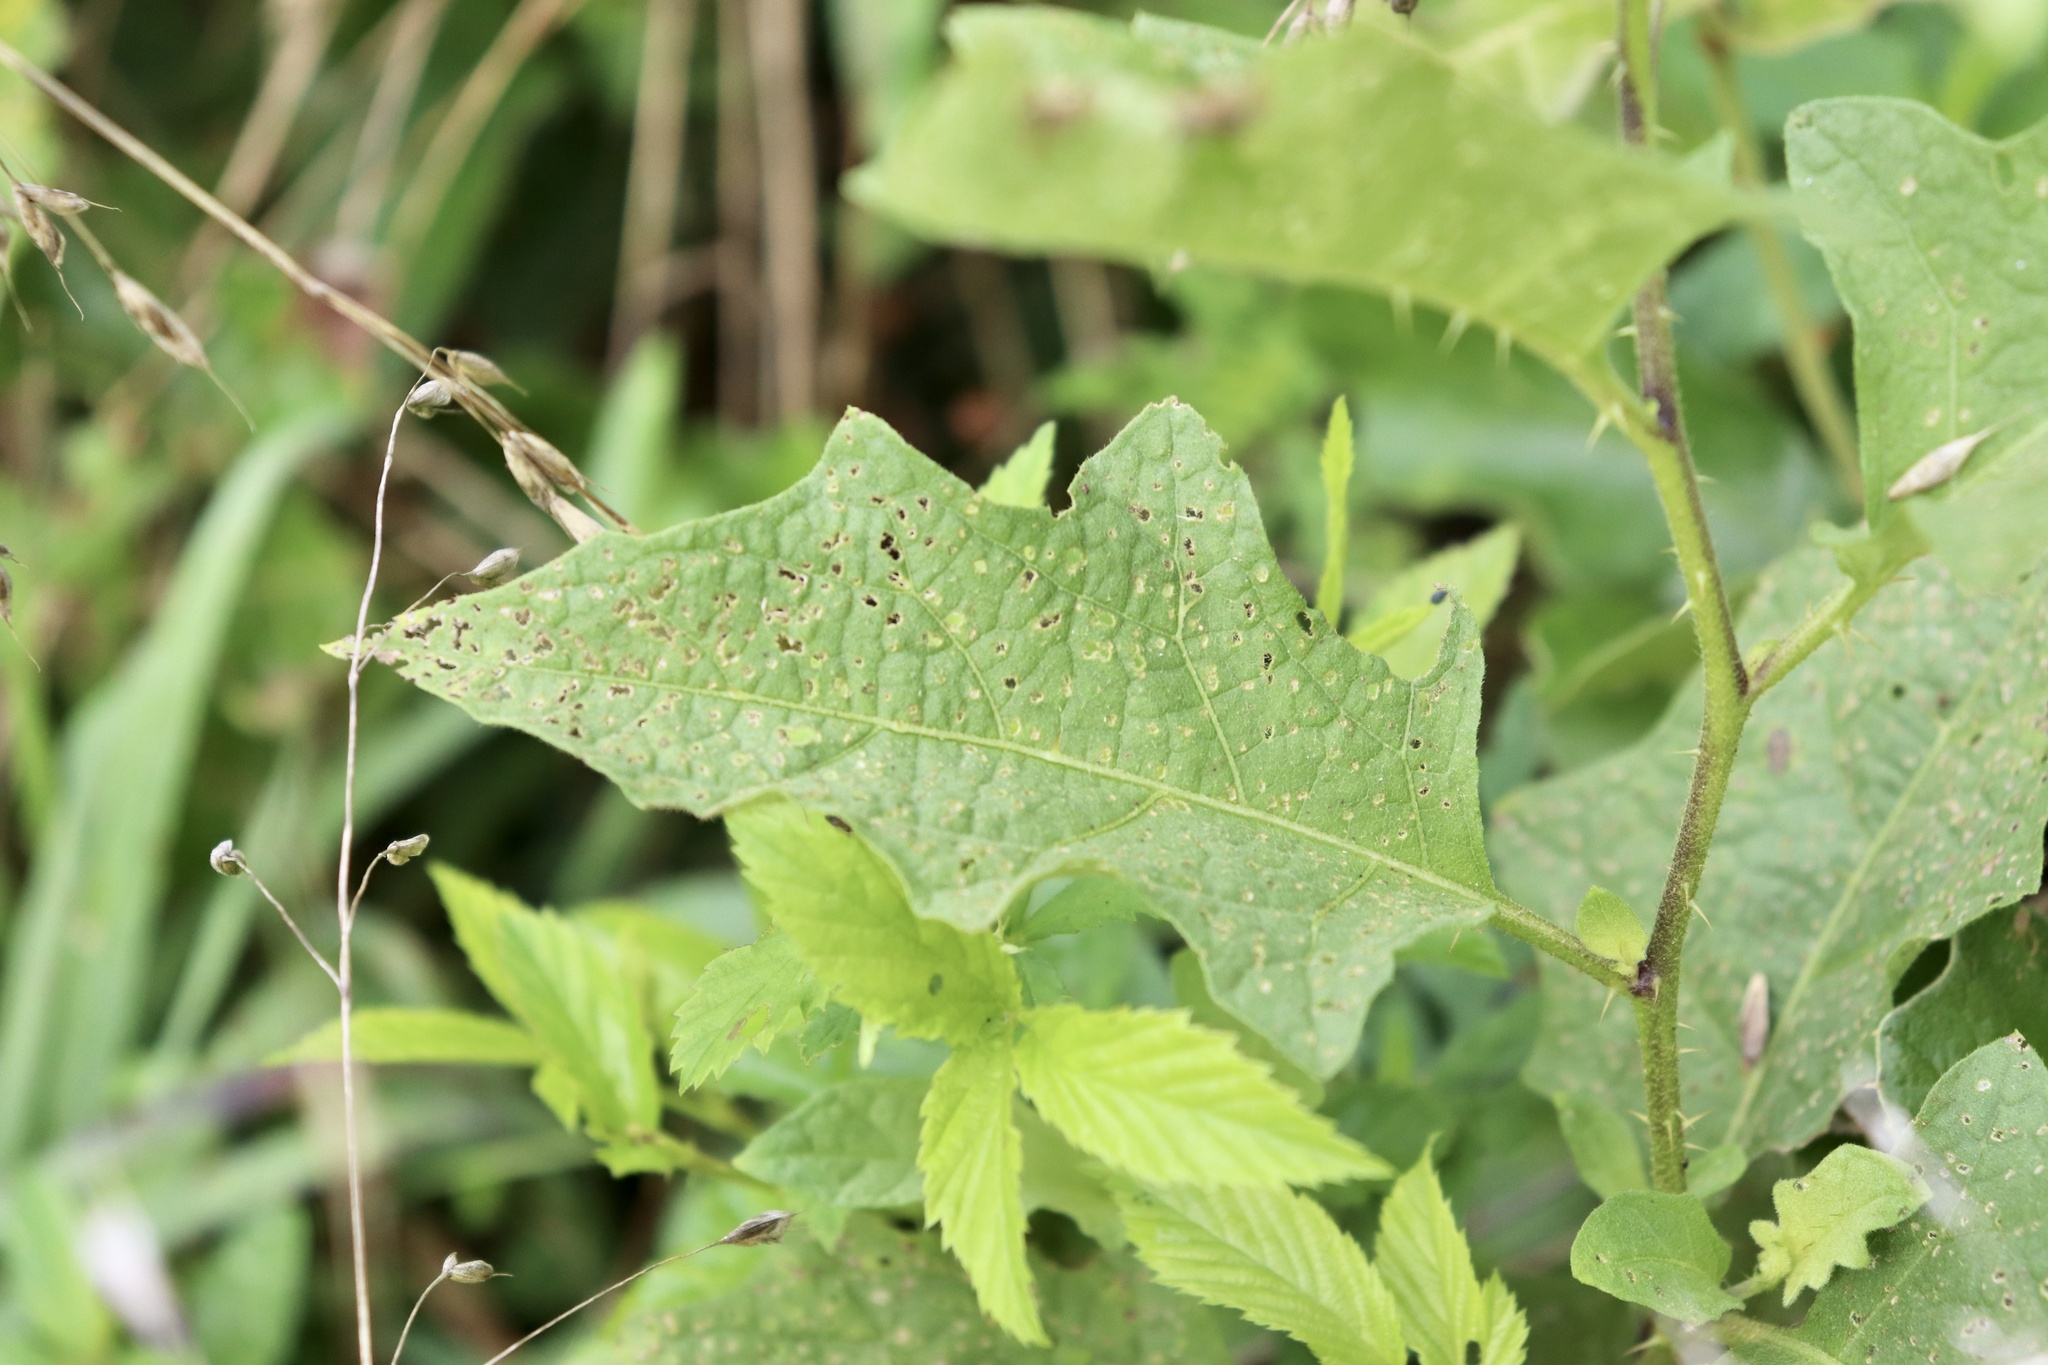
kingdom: Plantae
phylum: Tracheophyta
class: Magnoliopsida
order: Solanales
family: Solanaceae
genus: Solanum
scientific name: Solanum carolinense
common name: Horse-nettle
